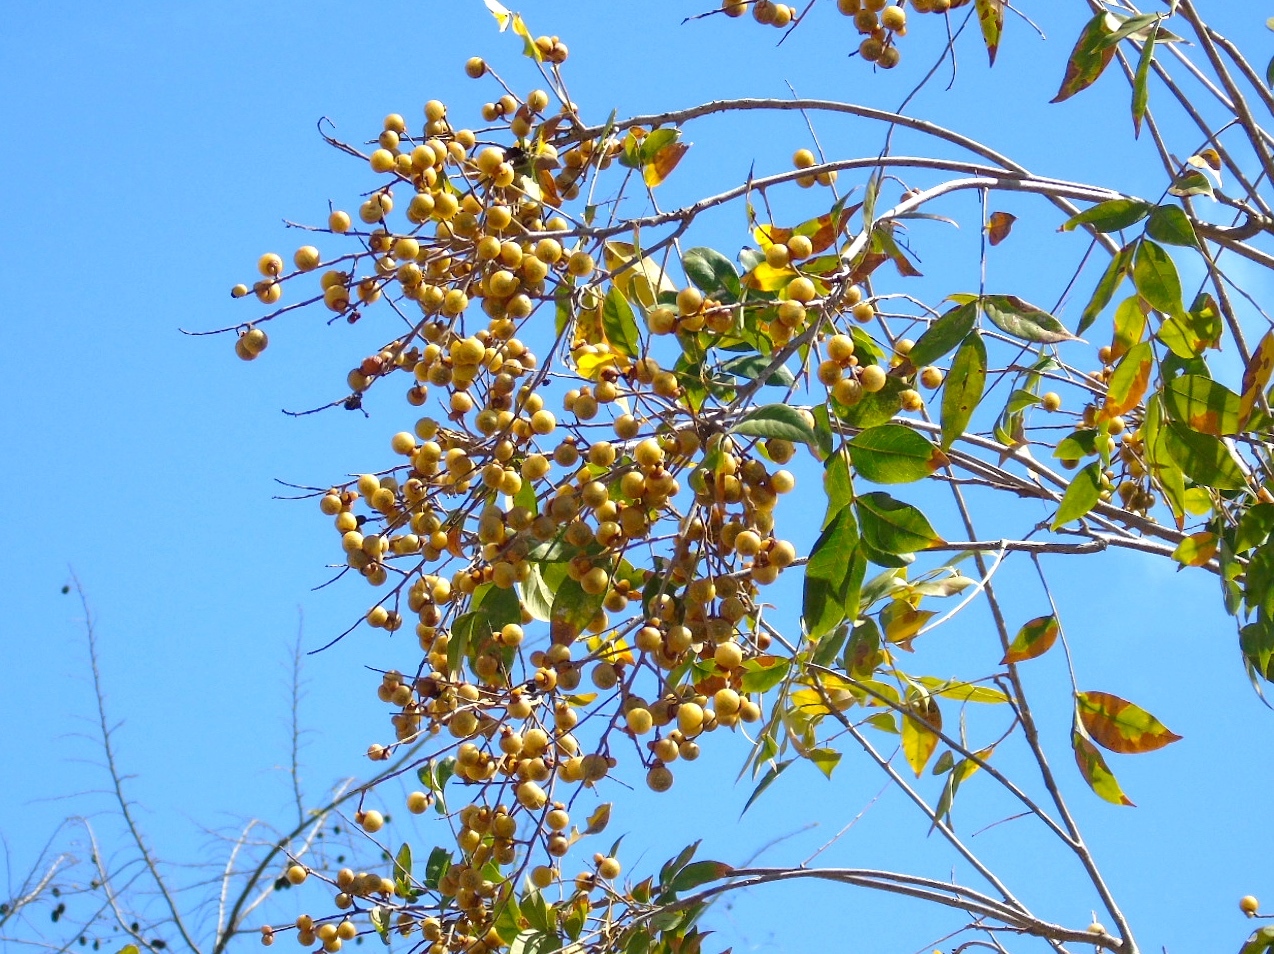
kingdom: Plantae
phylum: Tracheophyta
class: Magnoliopsida
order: Sapindales
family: Sapindaceae
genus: Sapindus
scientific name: Sapindus drummondii
